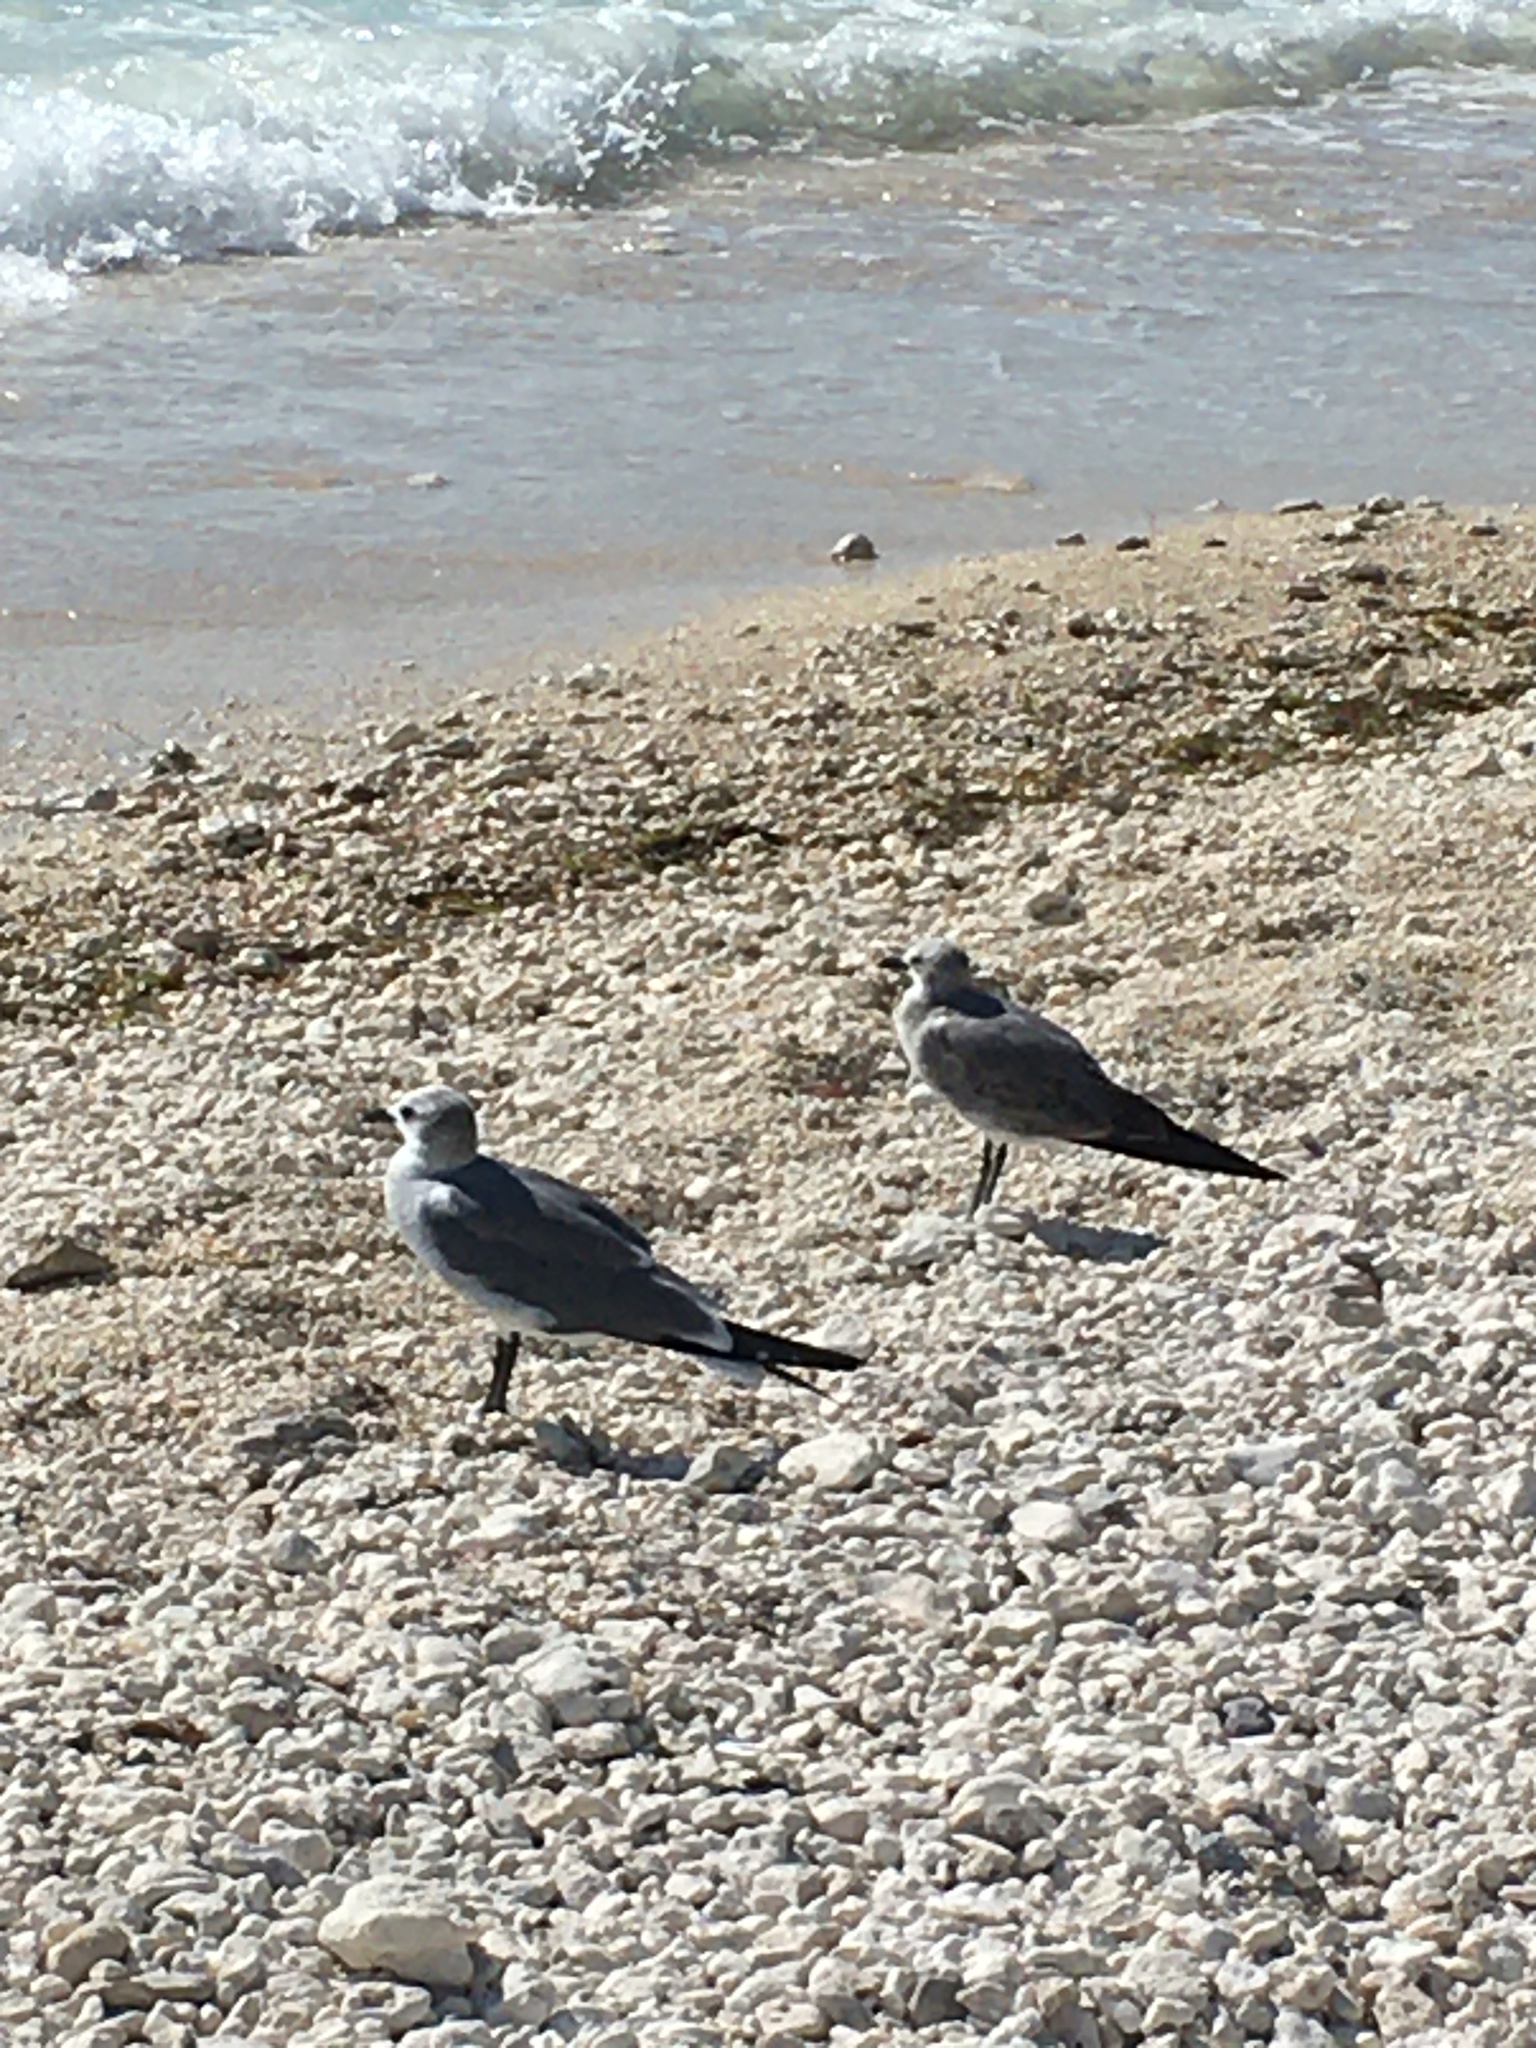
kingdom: Animalia
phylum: Chordata
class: Aves
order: Charadriiformes
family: Laridae
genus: Leucophaeus
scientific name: Leucophaeus atricilla
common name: Laughing gull
